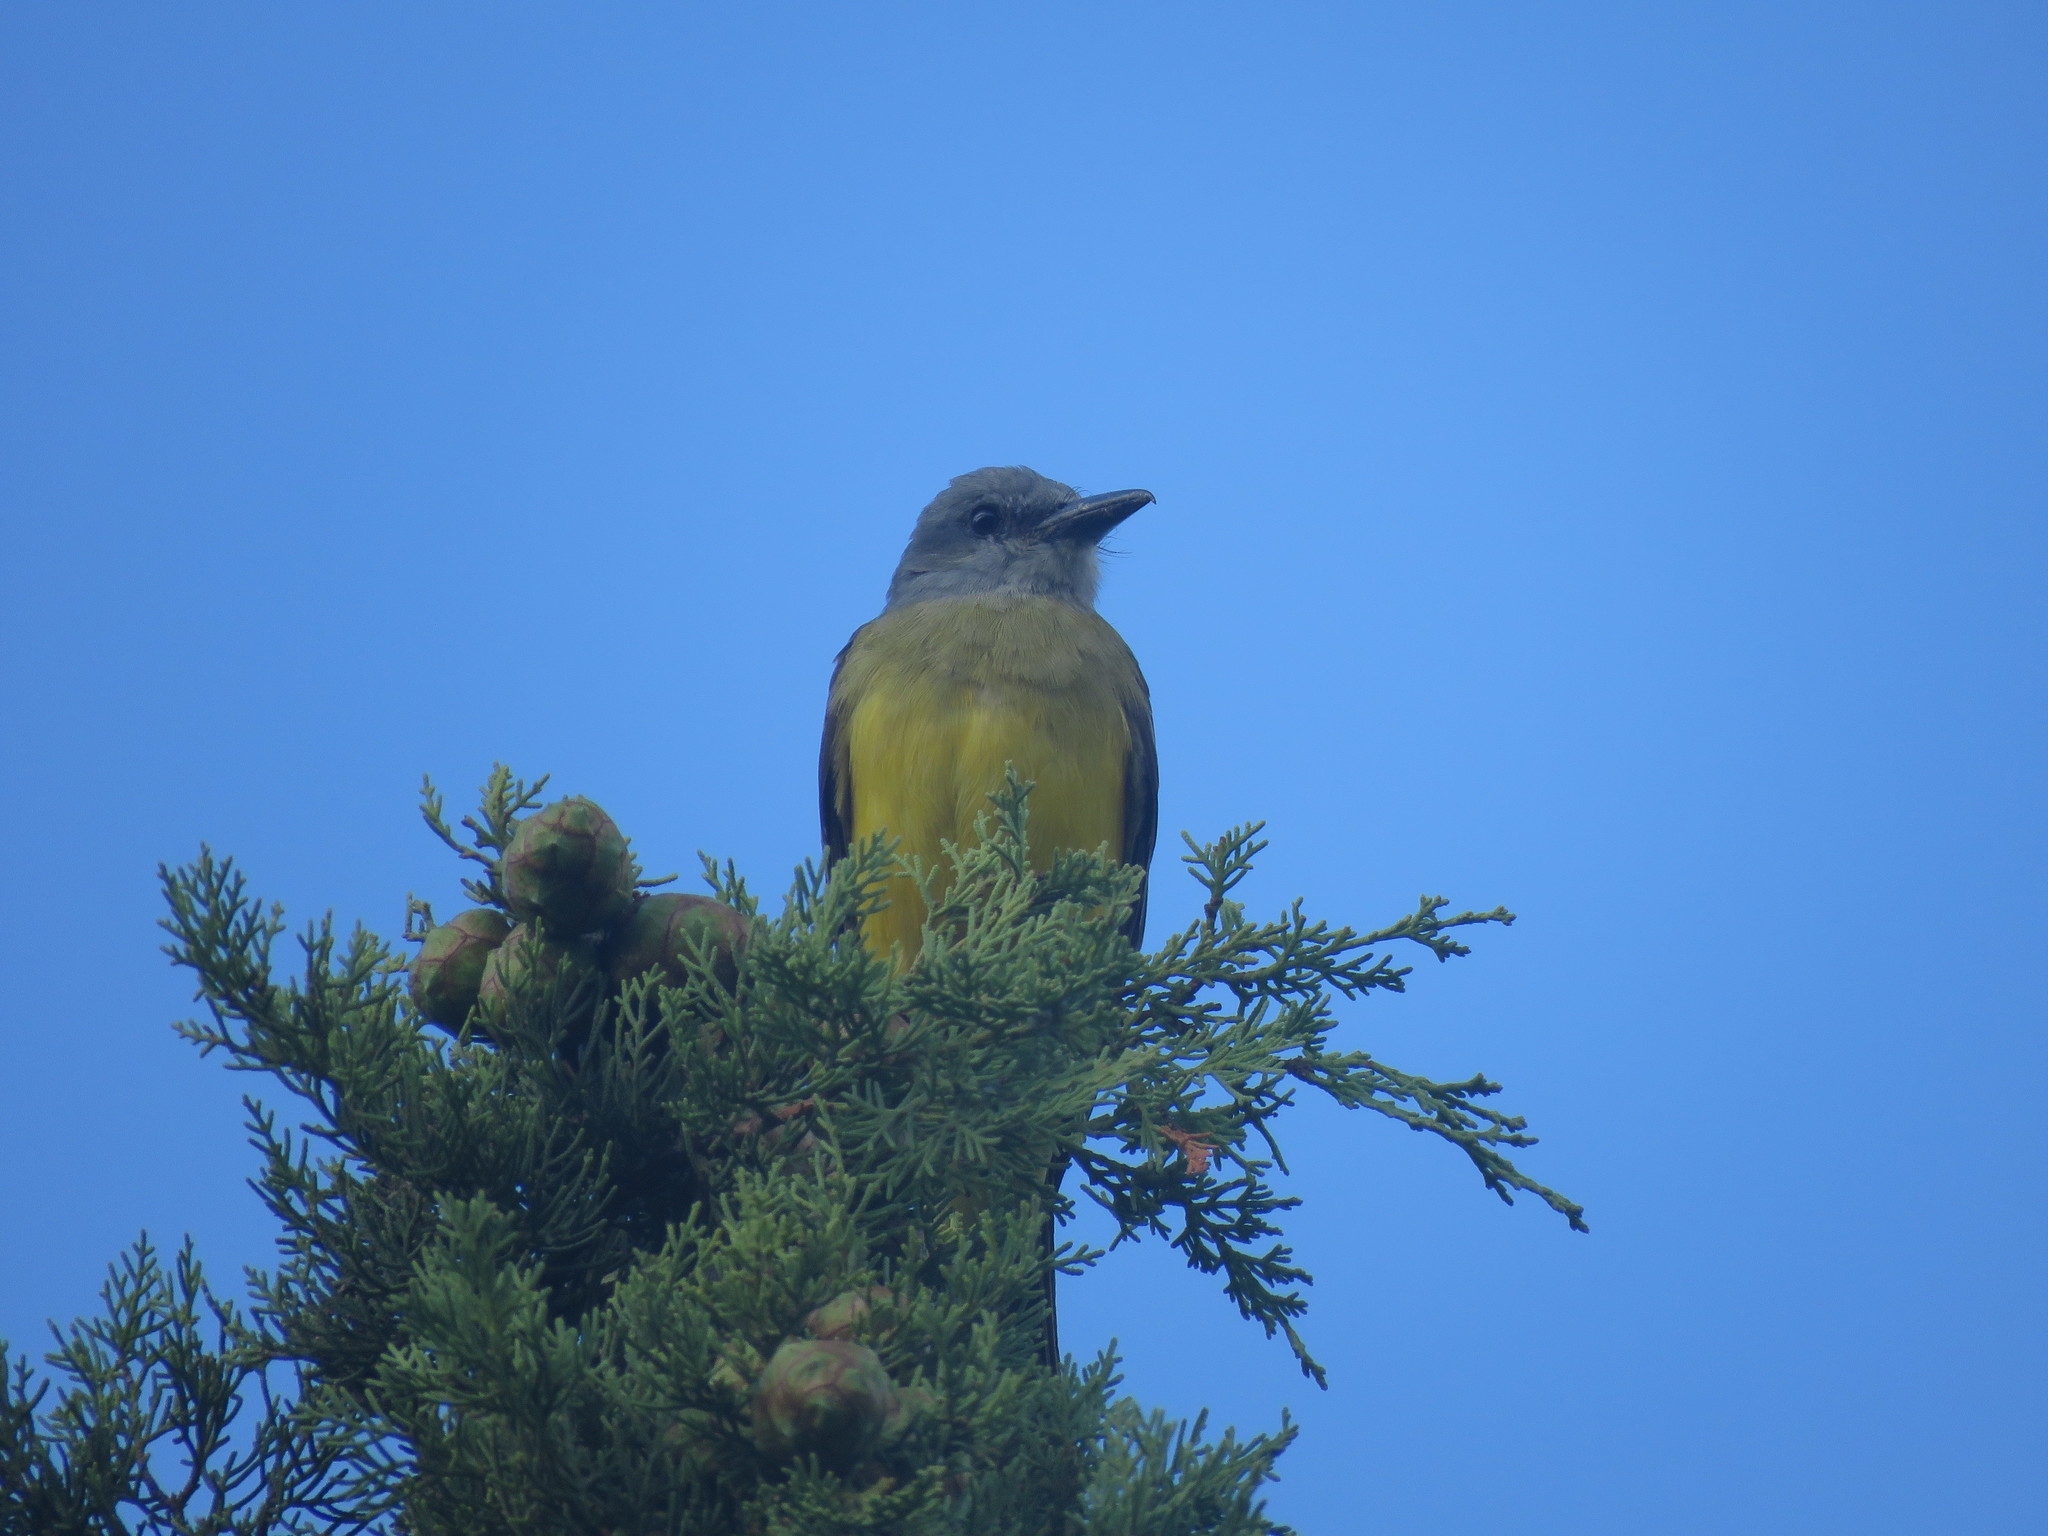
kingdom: Animalia
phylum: Chordata
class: Aves
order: Passeriformes
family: Tyrannidae
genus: Tyrannus
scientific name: Tyrannus melancholicus
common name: Tropical kingbird
